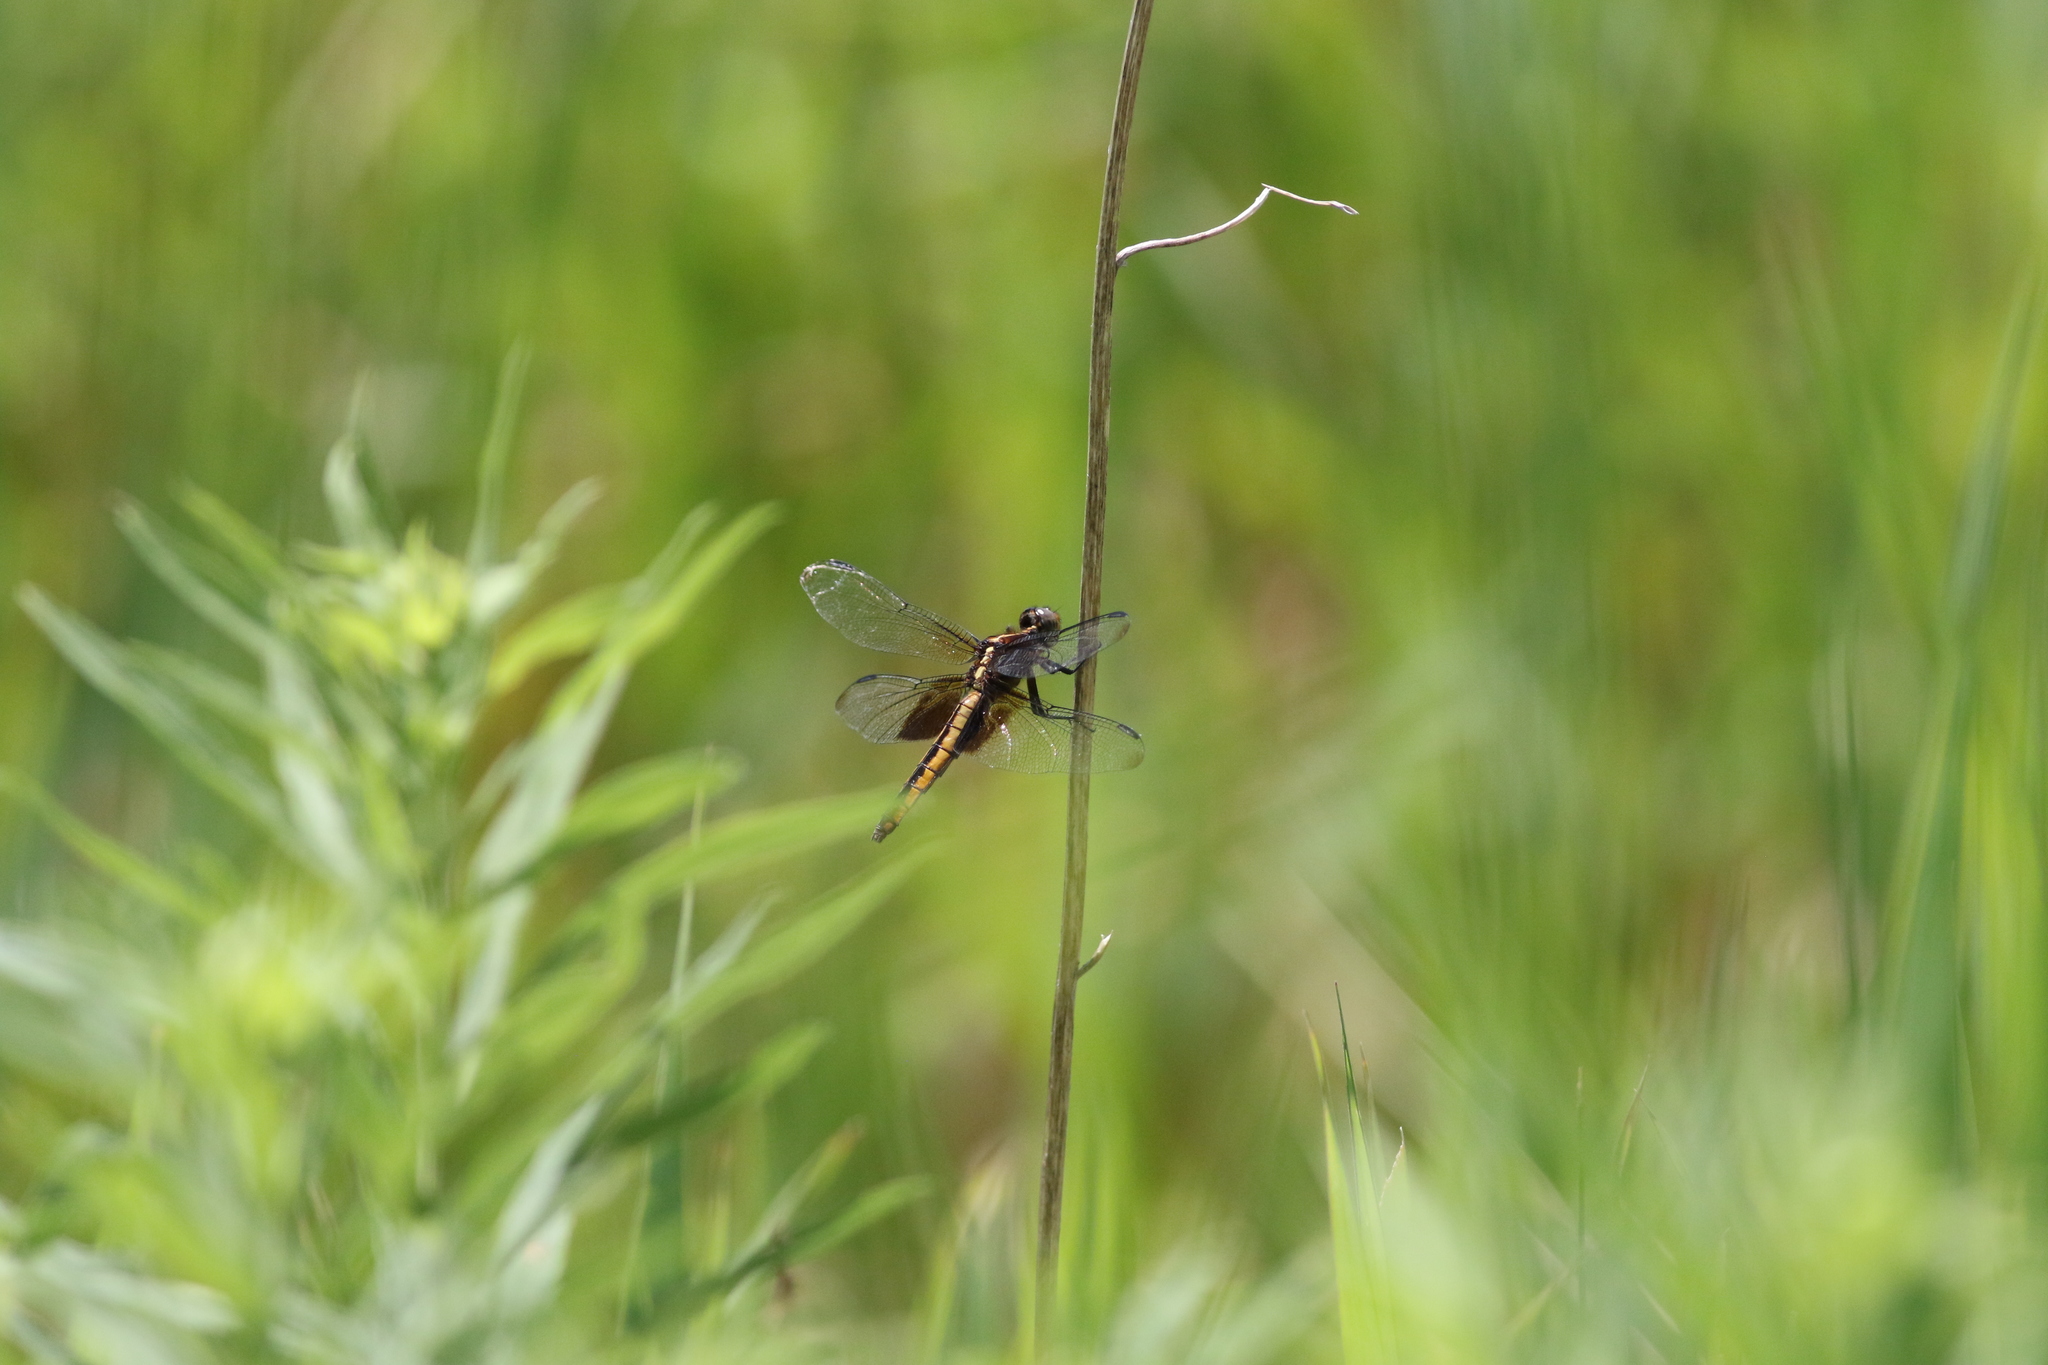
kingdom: Animalia
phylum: Arthropoda
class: Insecta
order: Odonata
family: Libellulidae
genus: Libellula
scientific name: Libellula luctuosa
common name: Widow skimmer
